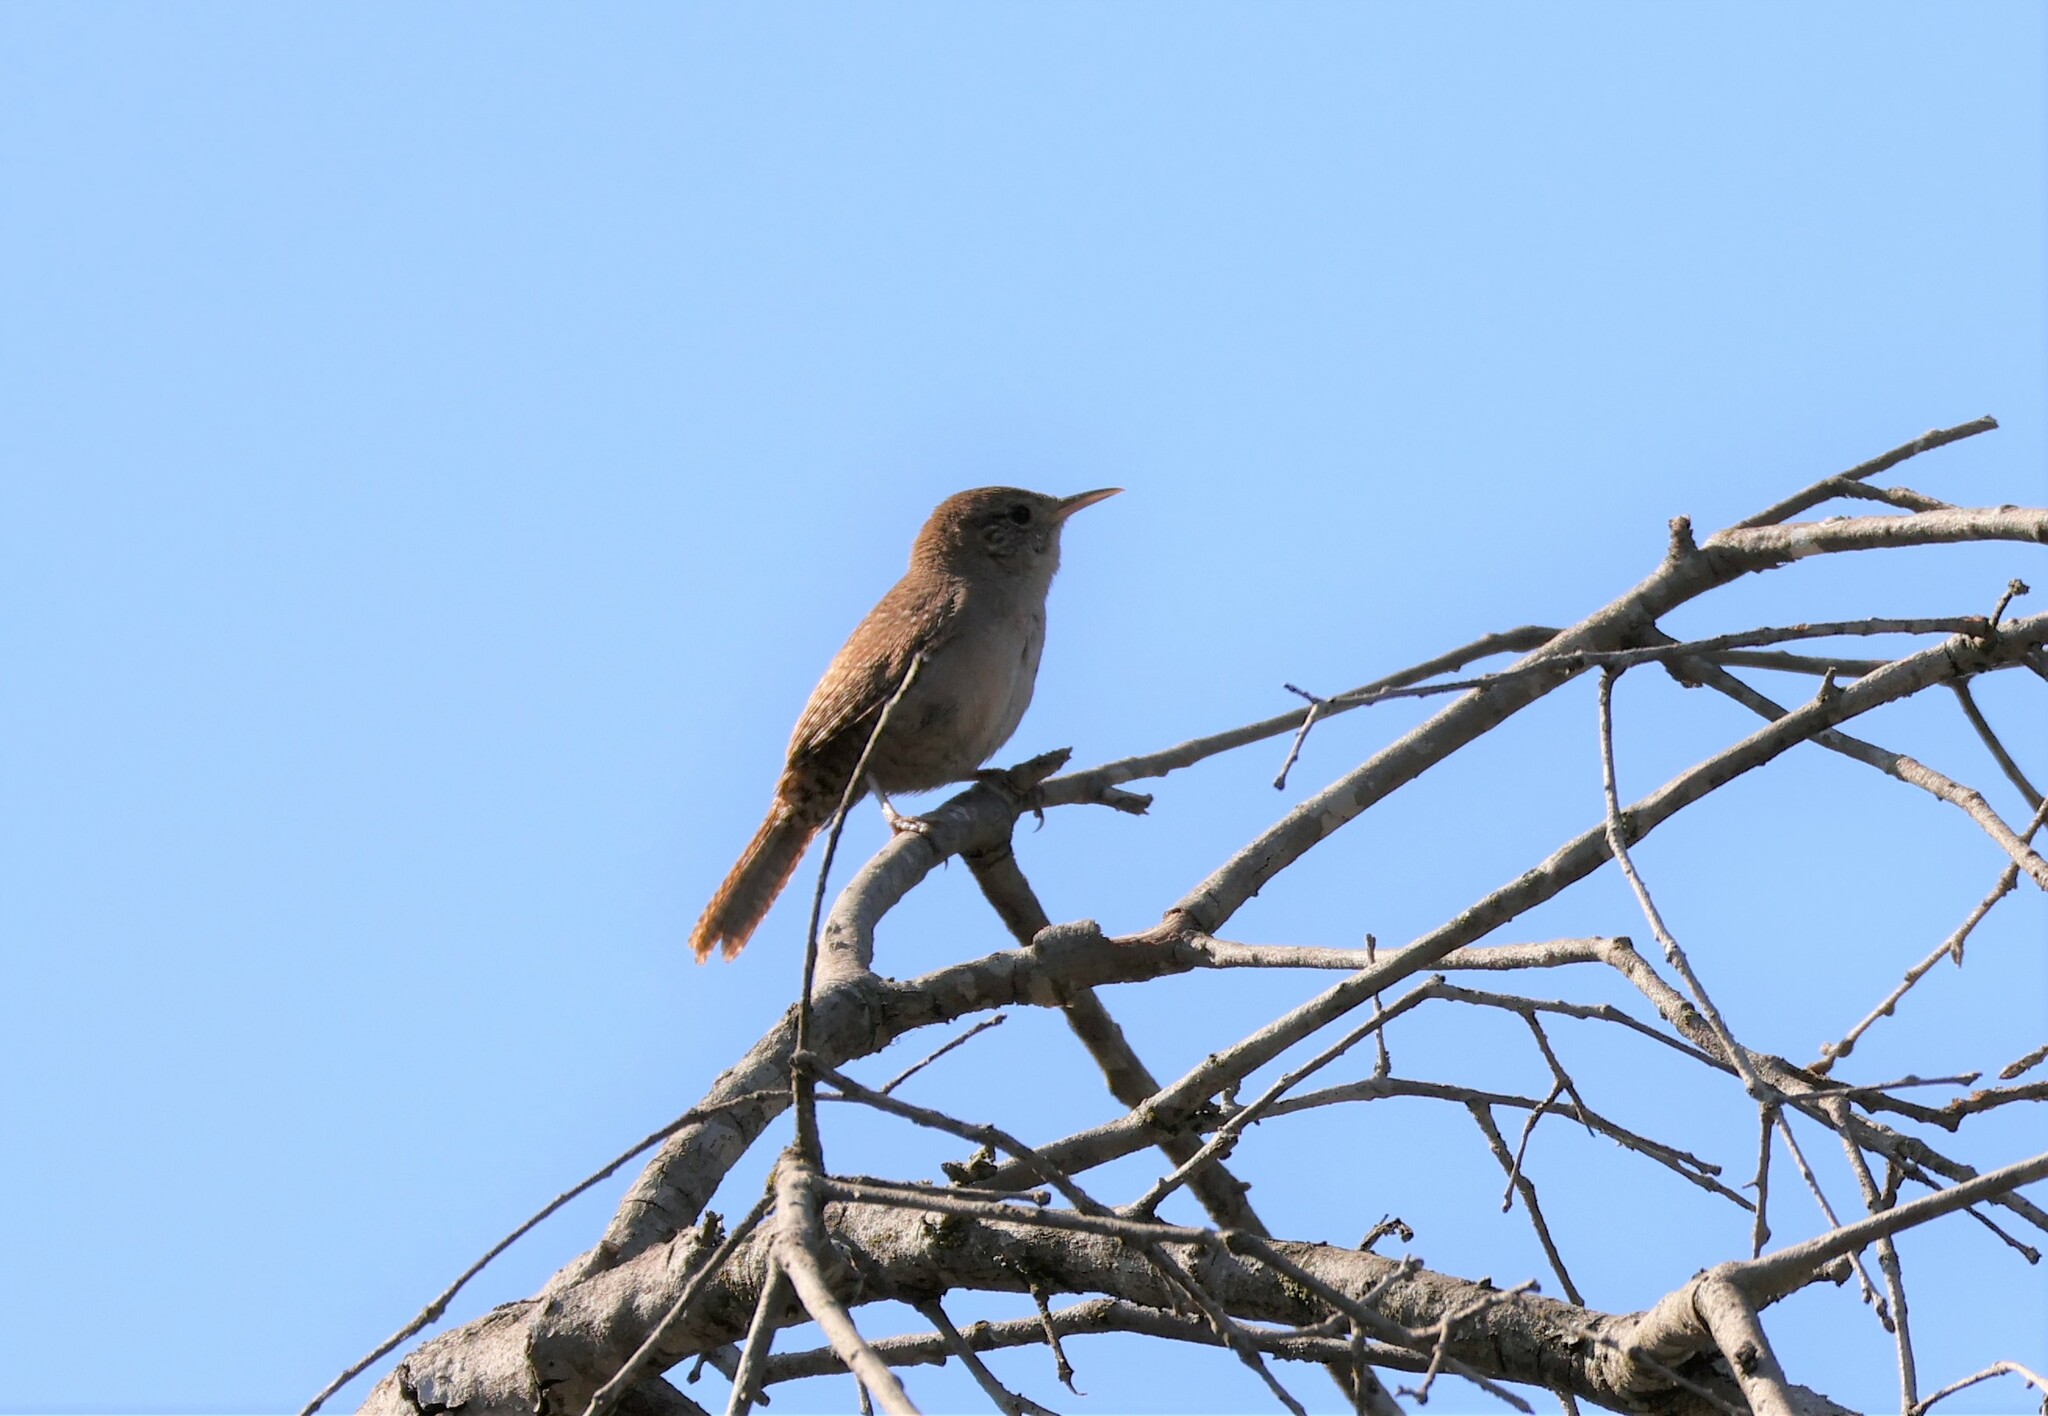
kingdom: Animalia
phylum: Chordata
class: Aves
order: Passeriformes
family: Troglodytidae
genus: Troglodytes
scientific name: Troglodytes aedon
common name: House wren
